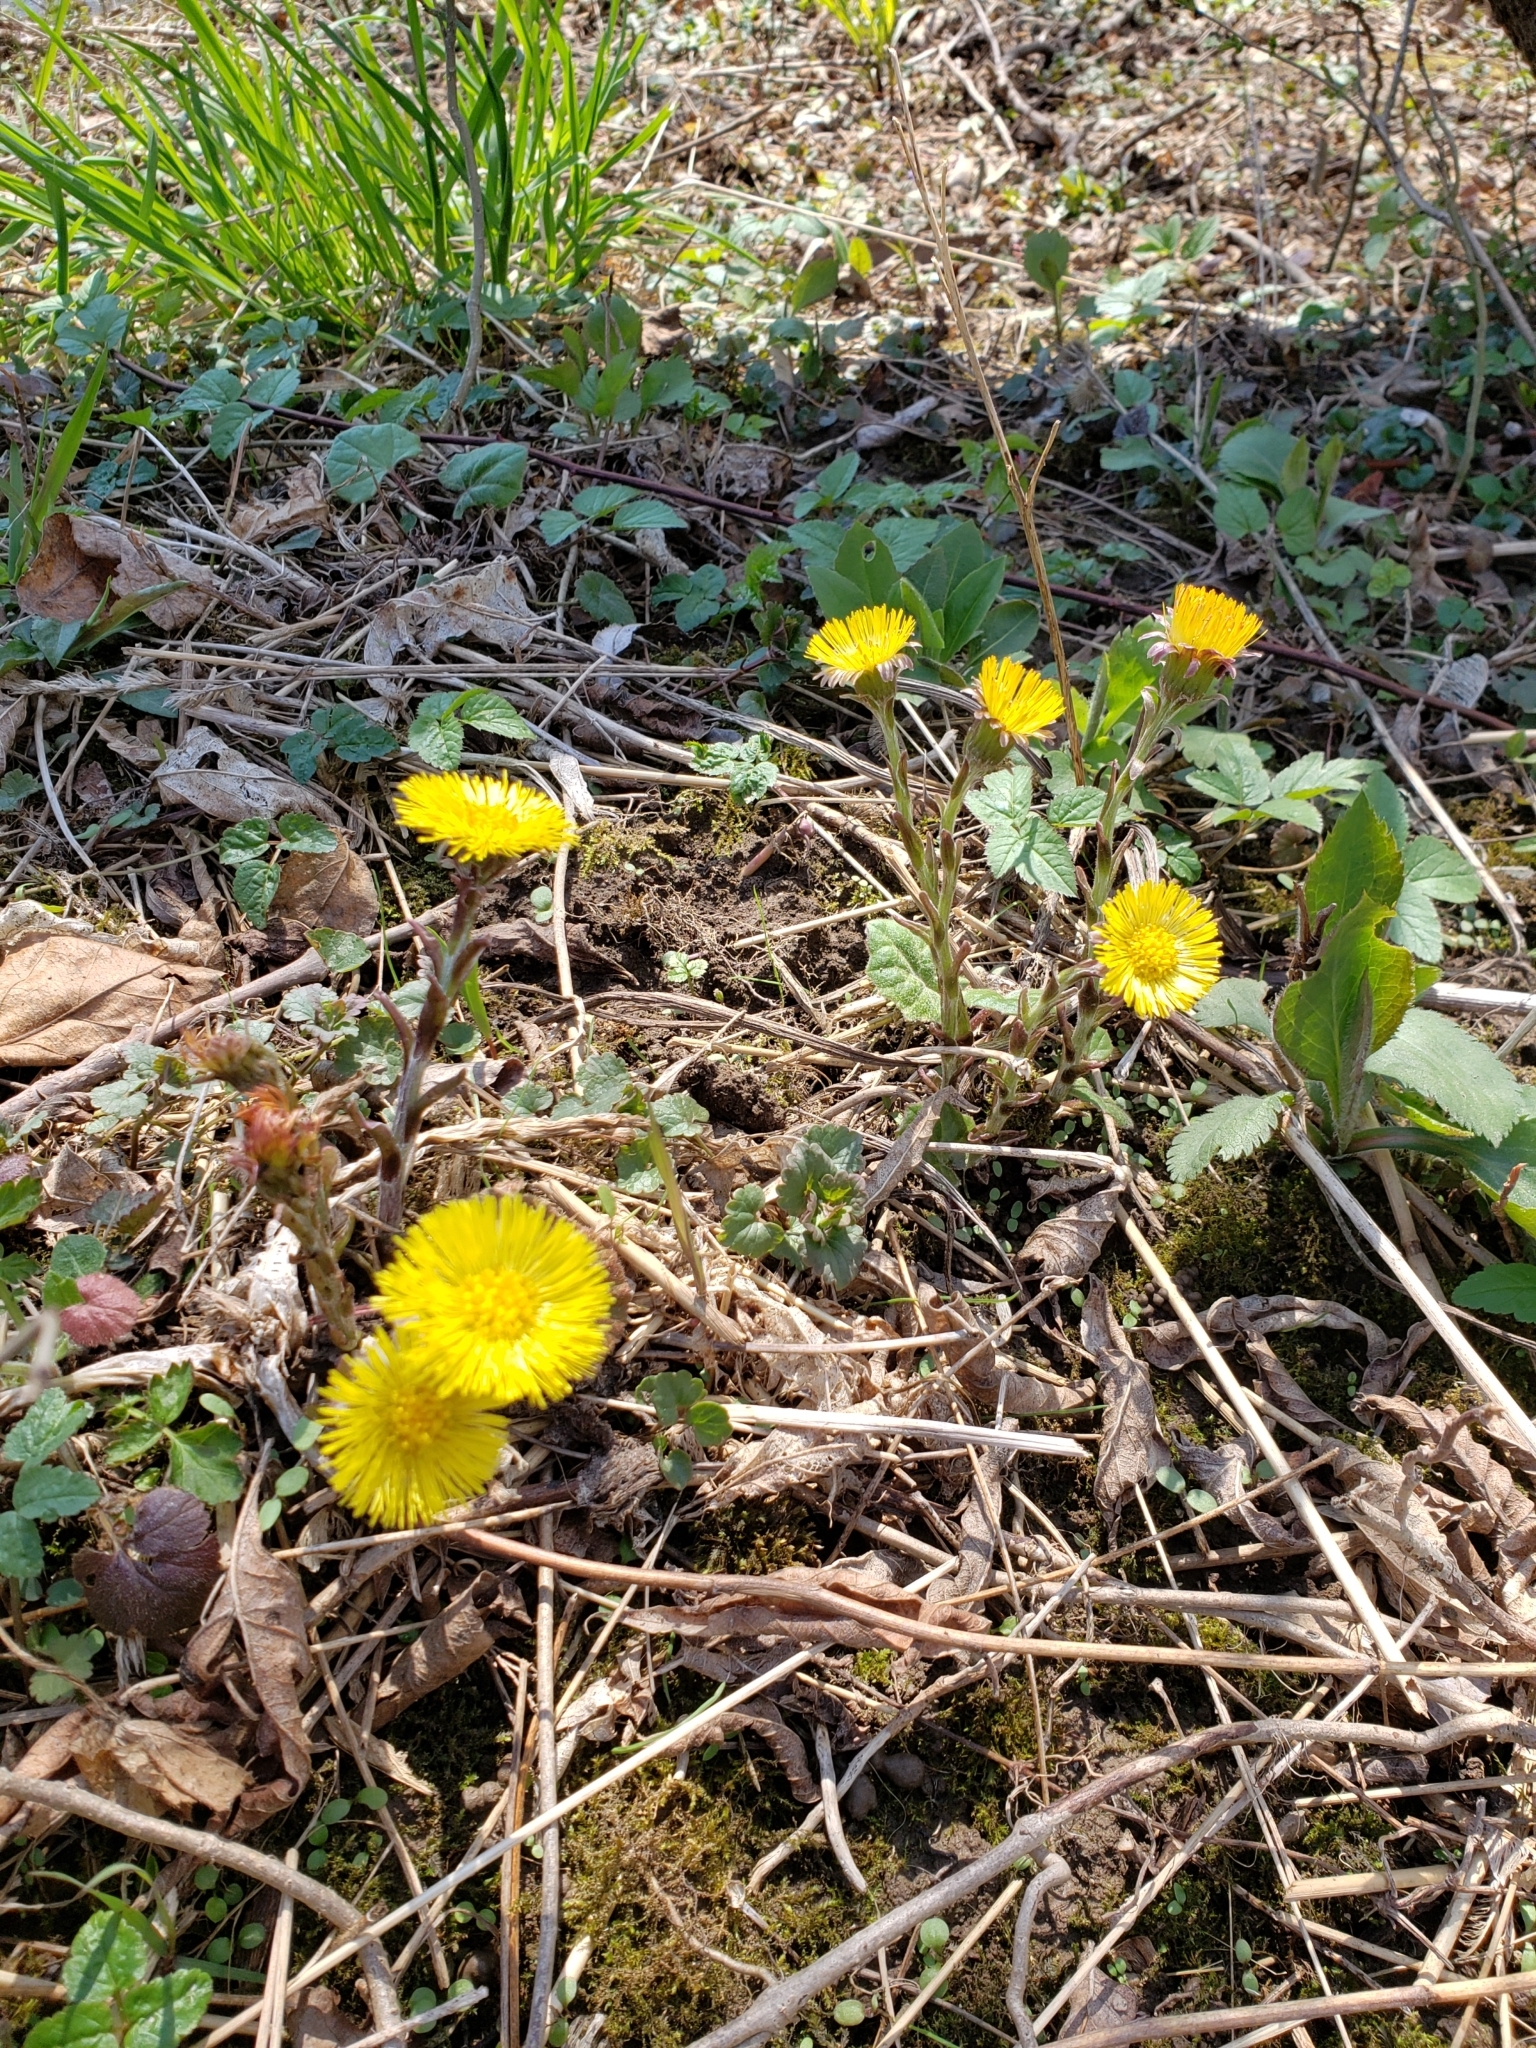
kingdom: Plantae
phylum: Tracheophyta
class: Magnoliopsida
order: Asterales
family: Asteraceae
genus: Tussilago
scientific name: Tussilago farfara
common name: Coltsfoot
